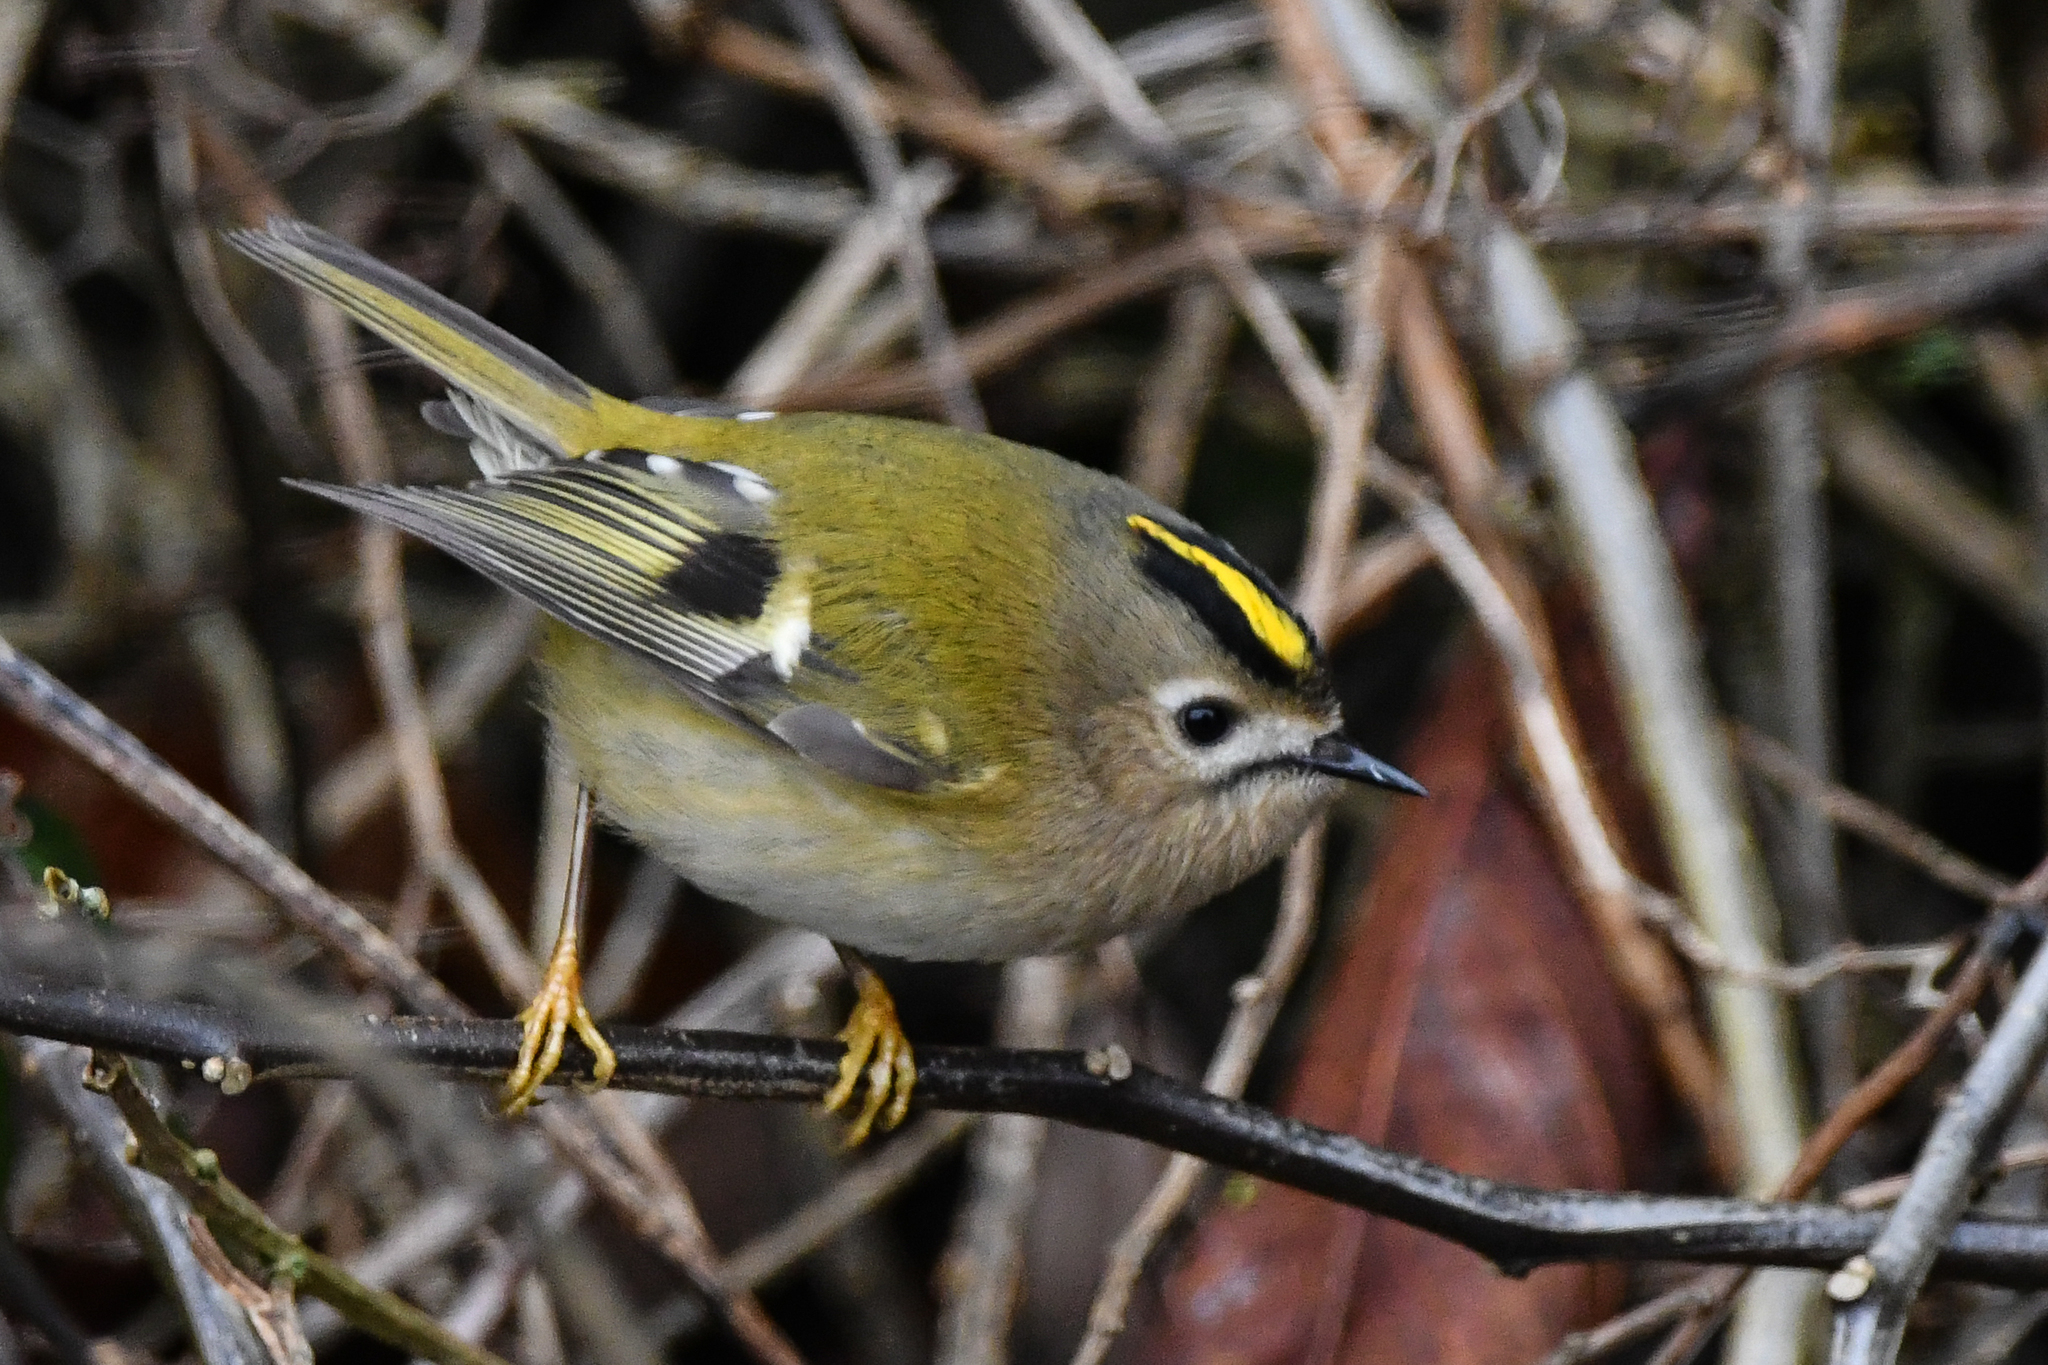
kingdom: Animalia
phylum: Chordata
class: Aves
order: Passeriformes
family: Regulidae
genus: Regulus
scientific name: Regulus regulus
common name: Goldcrest
